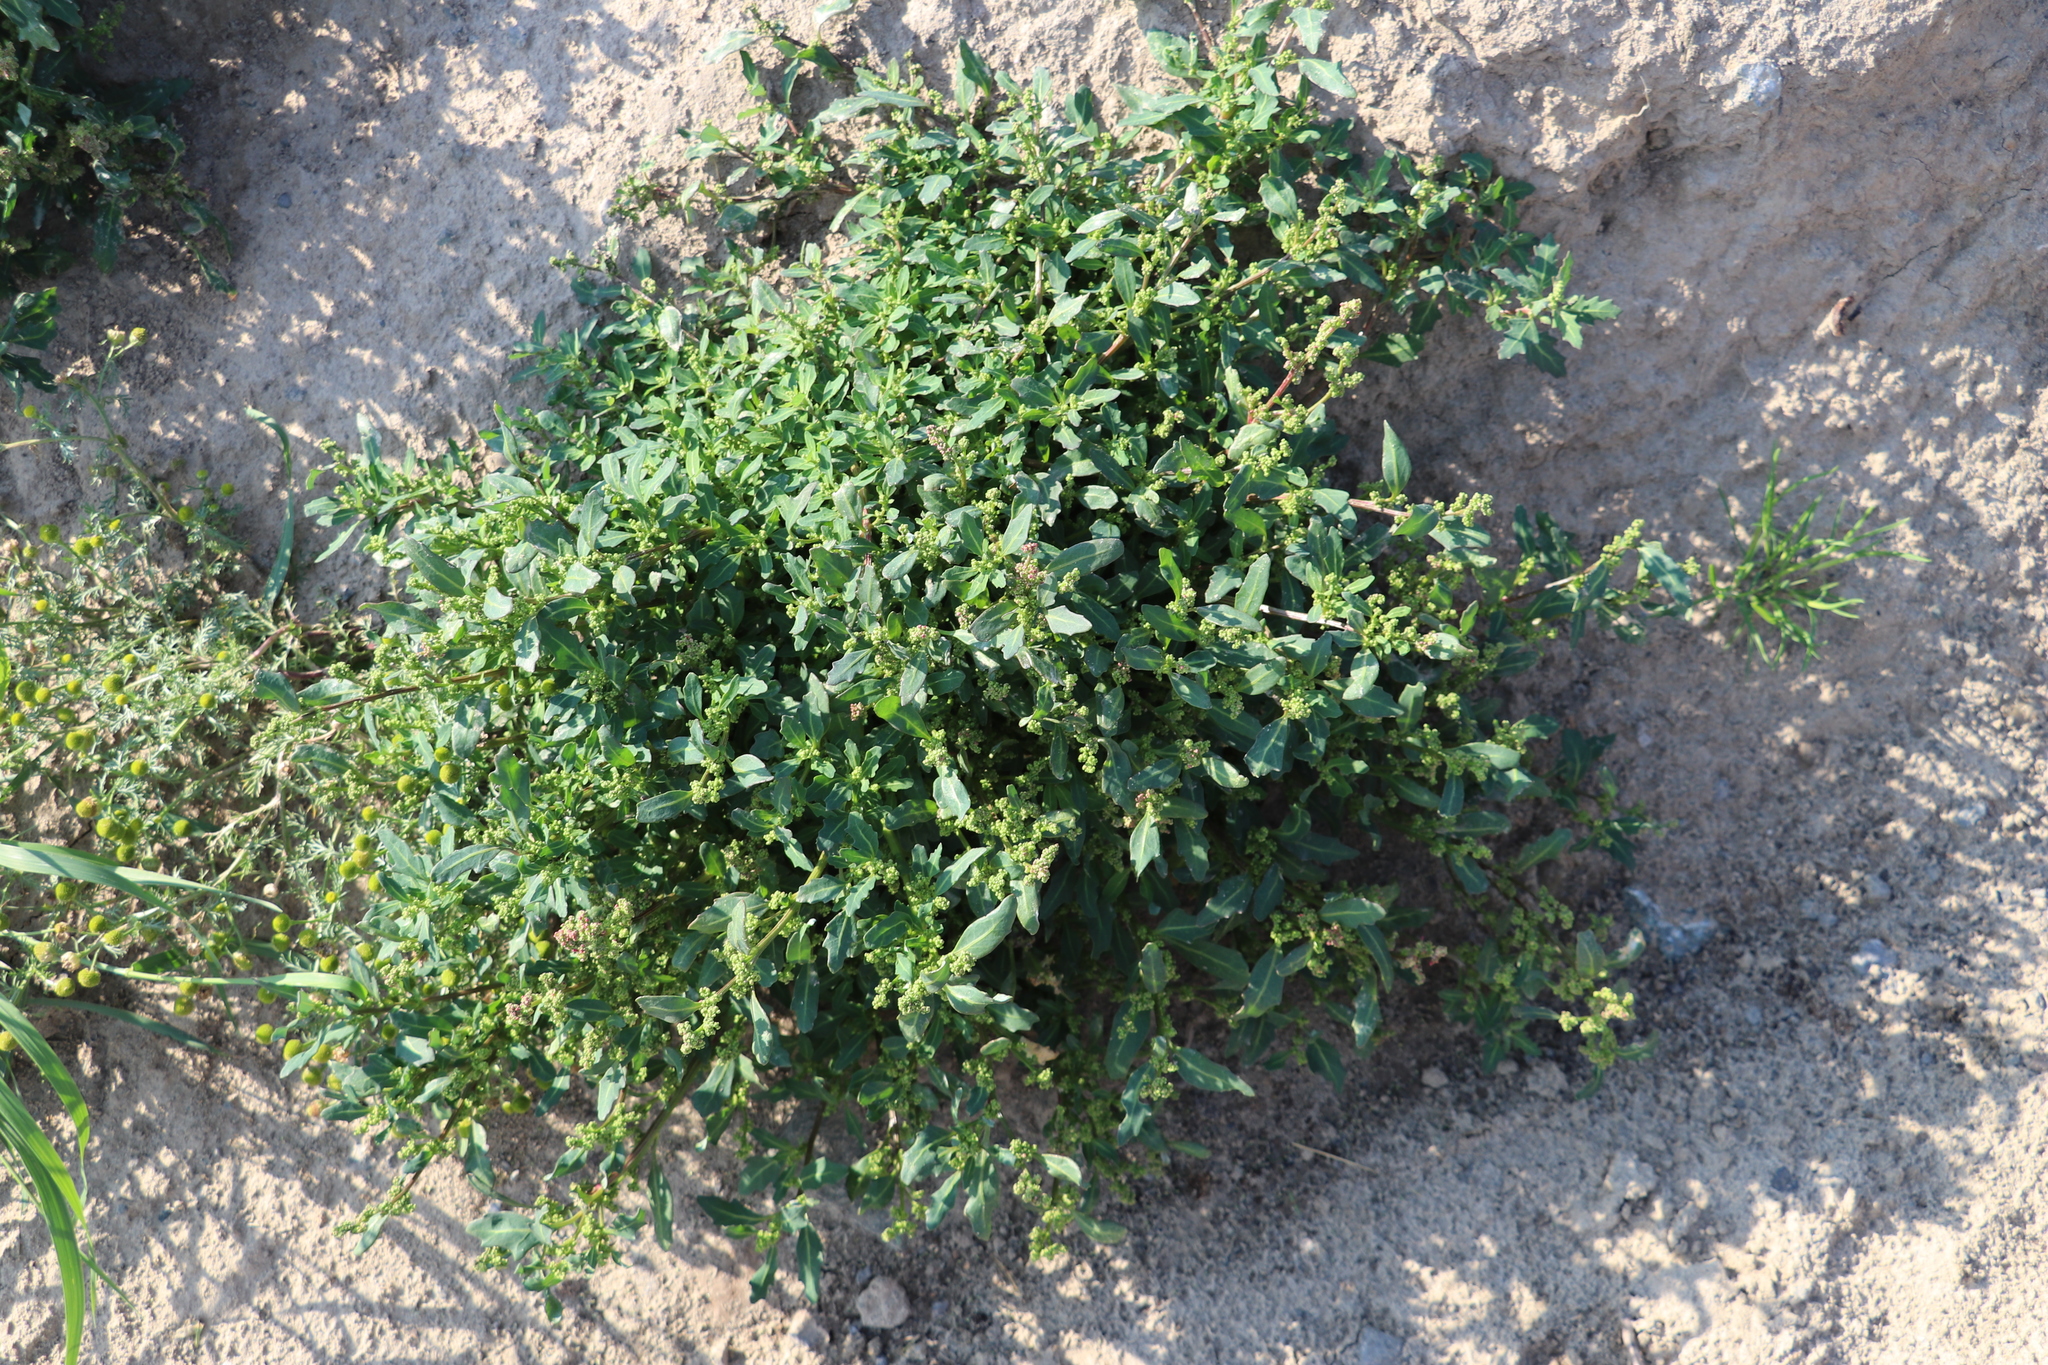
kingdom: Plantae
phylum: Tracheophyta
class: Magnoliopsida
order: Caryophyllales
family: Amaranthaceae
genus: Oxybasis
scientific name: Oxybasis glauca
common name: Glaucous goosefoot
